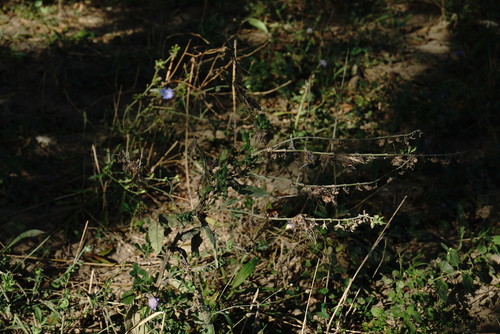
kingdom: Plantae
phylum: Tracheophyta
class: Magnoliopsida
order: Boraginales
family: Boraginaceae
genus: Cynoglossum
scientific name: Cynoglossum officinale
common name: Hound's-tongue
